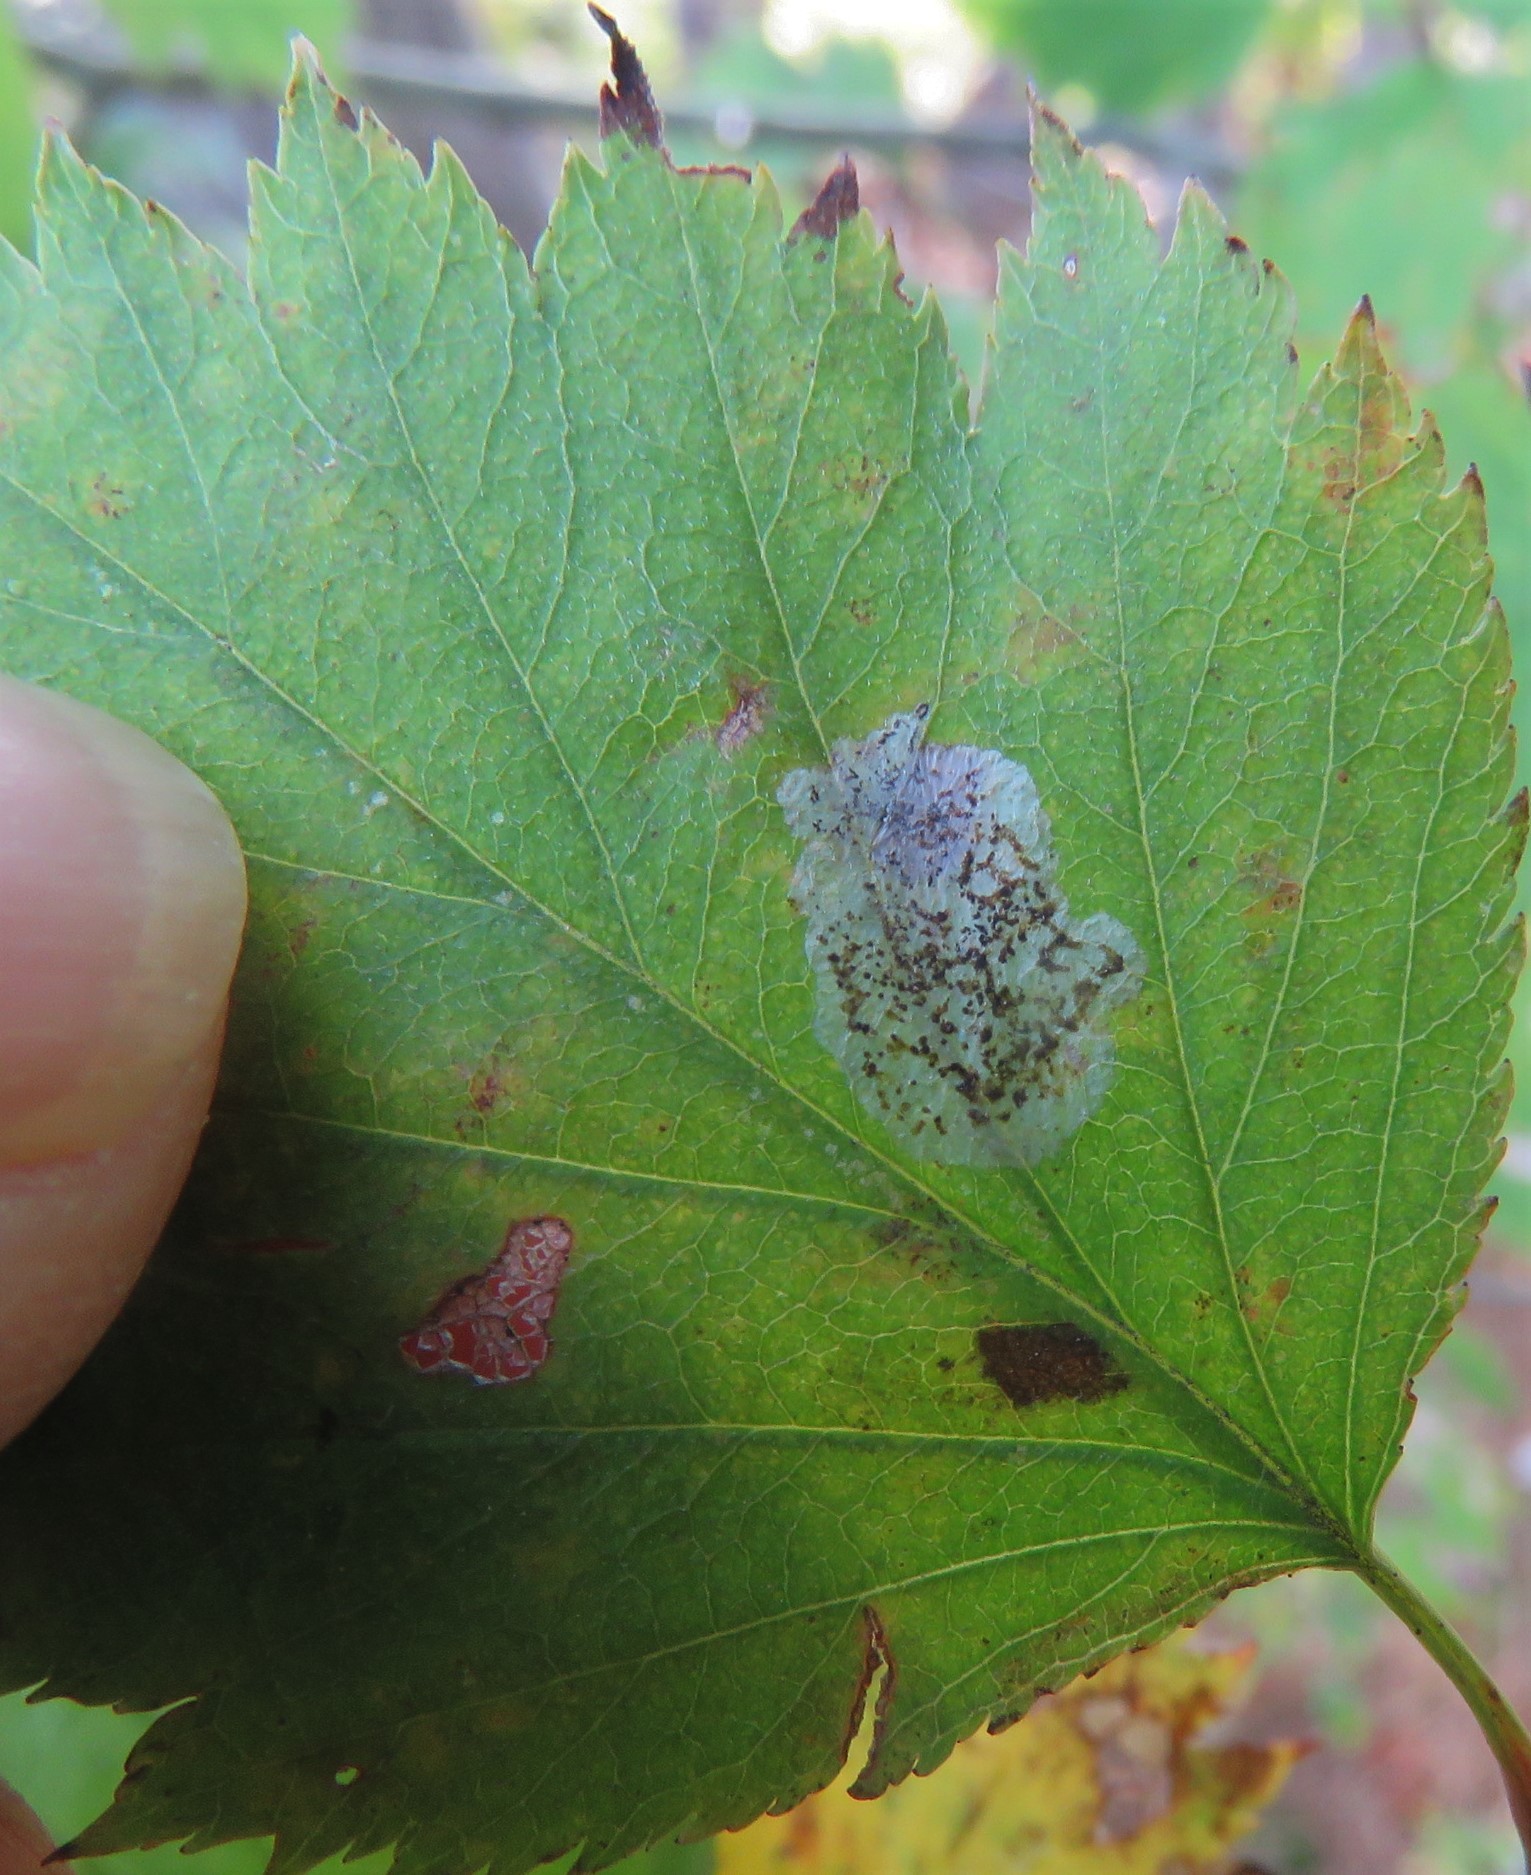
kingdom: Animalia
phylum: Arthropoda
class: Insecta
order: Lepidoptera
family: Gracillariidae
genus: Parornix
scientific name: Parornix inusitatumella
